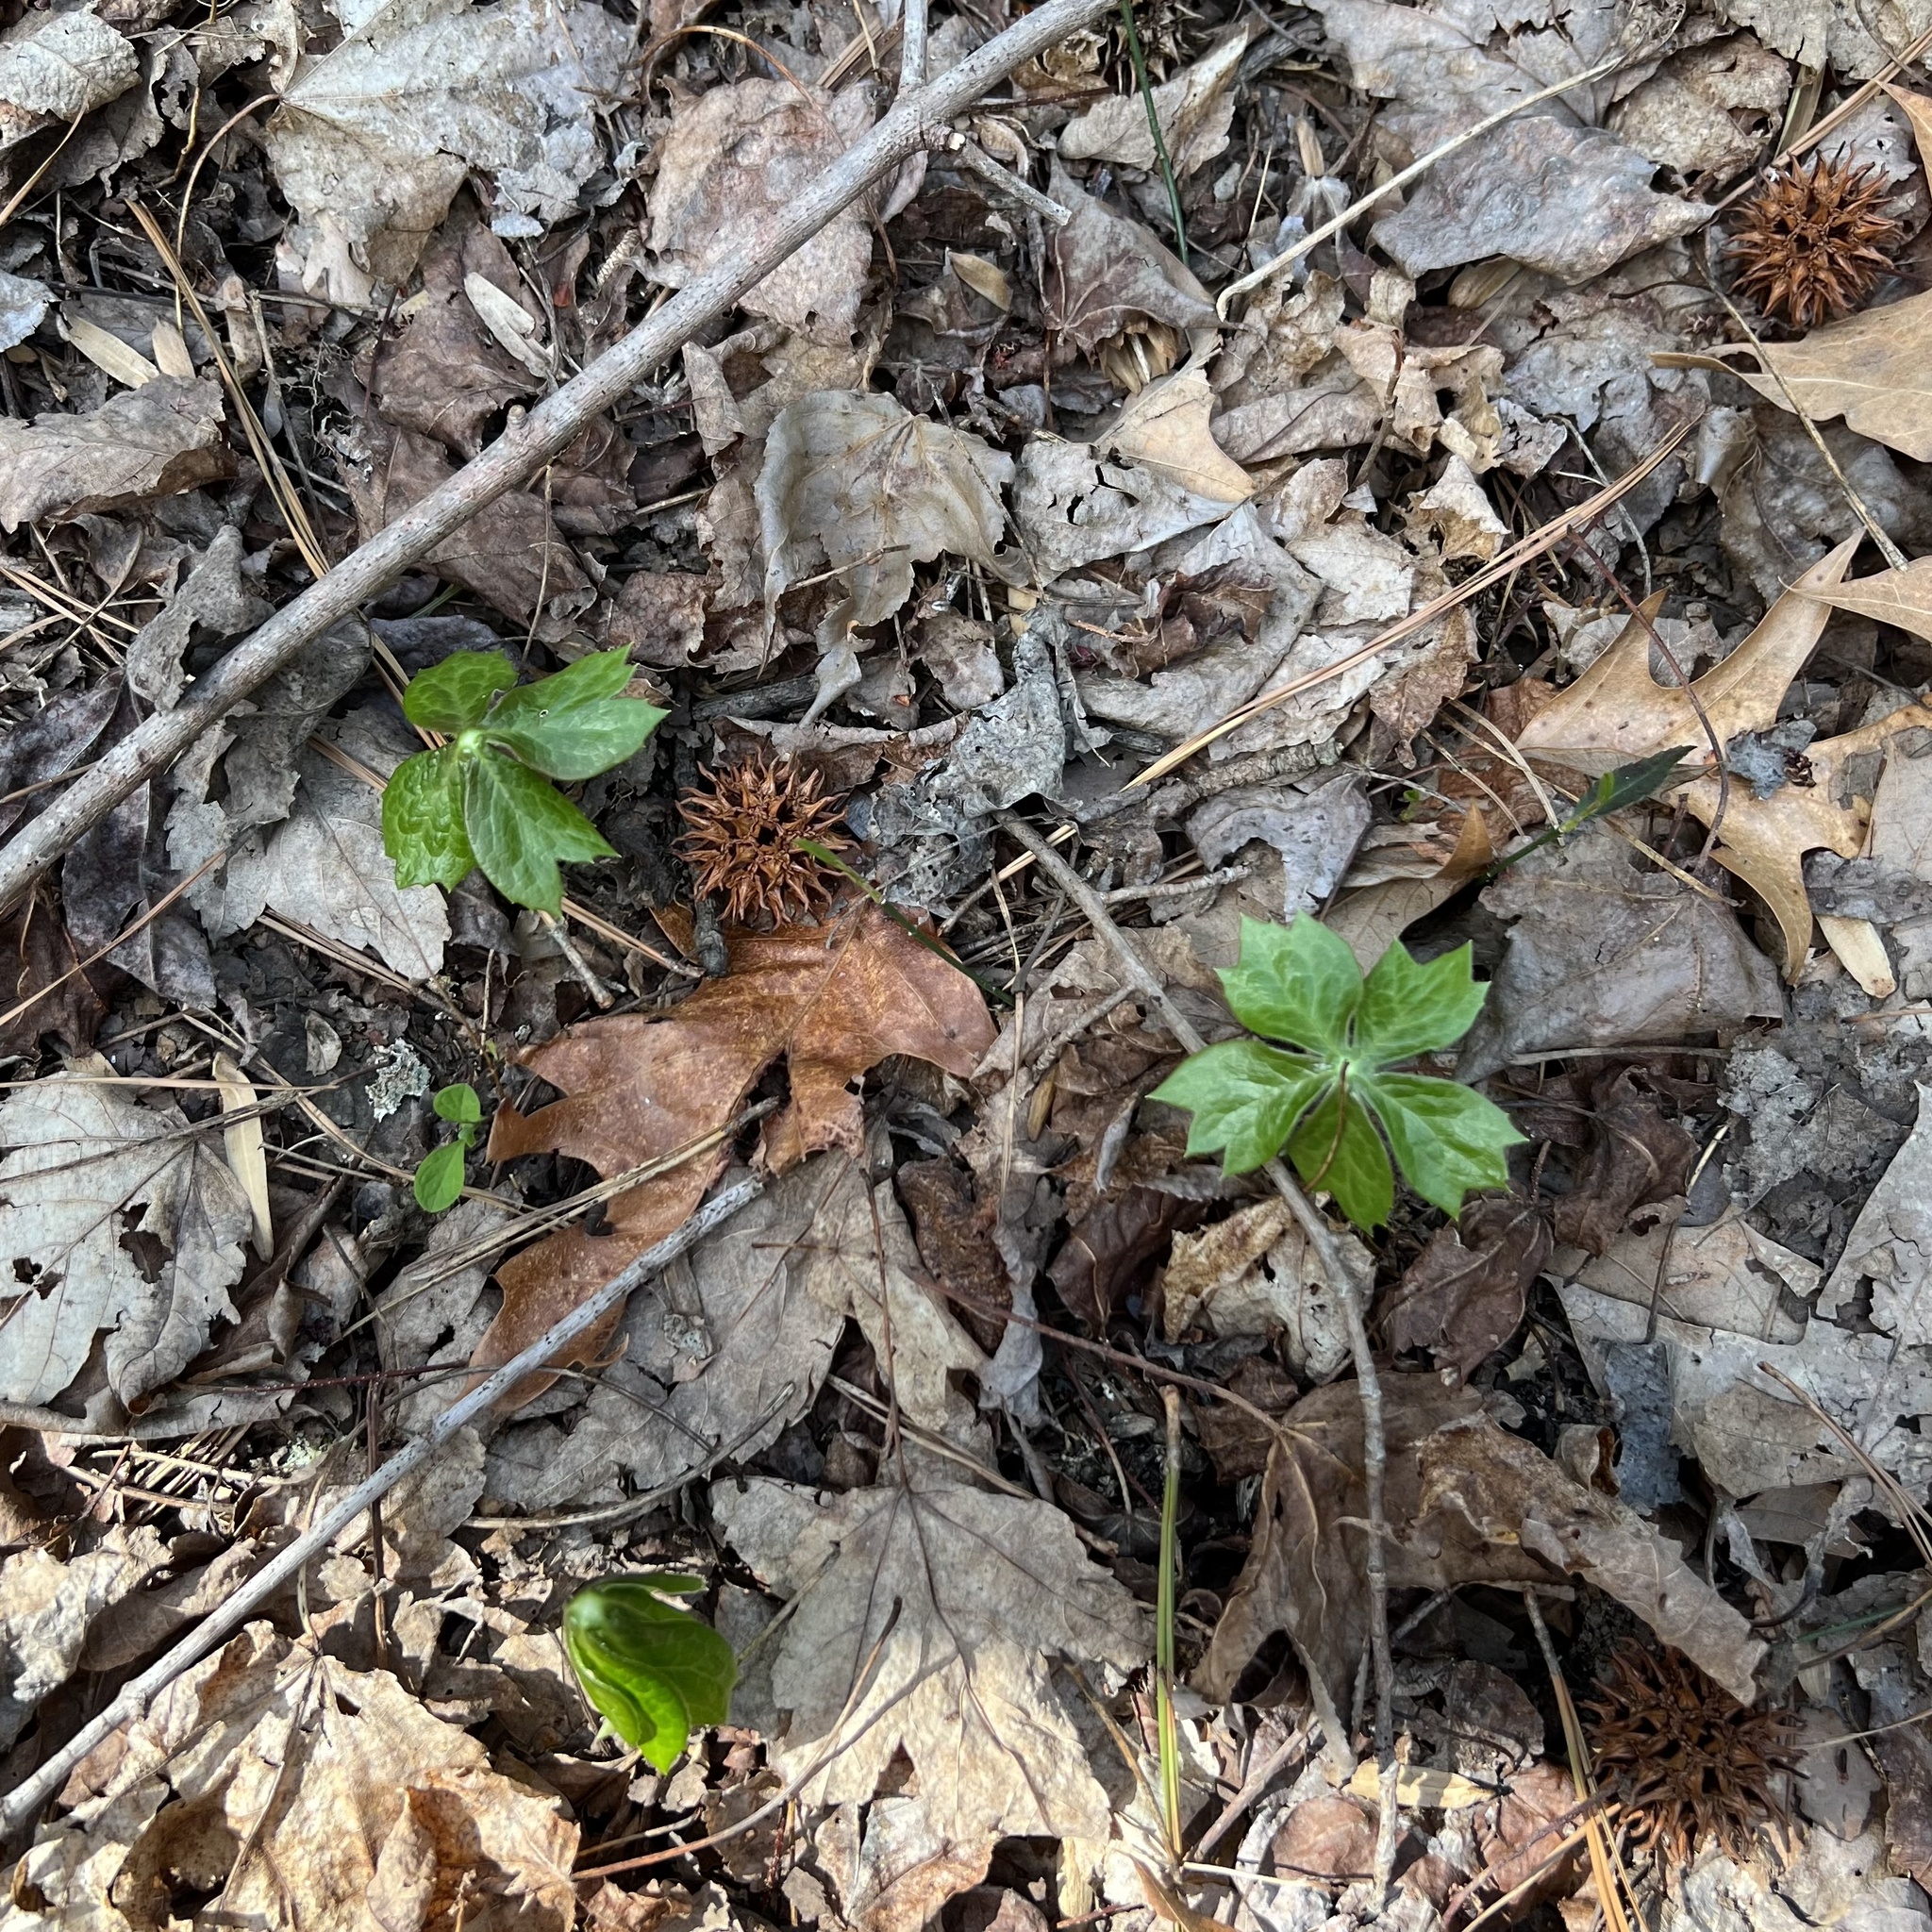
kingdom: Plantae
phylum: Tracheophyta
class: Magnoliopsida
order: Ranunculales
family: Berberidaceae
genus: Podophyllum
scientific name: Podophyllum peltatum
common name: Wild mandrake
